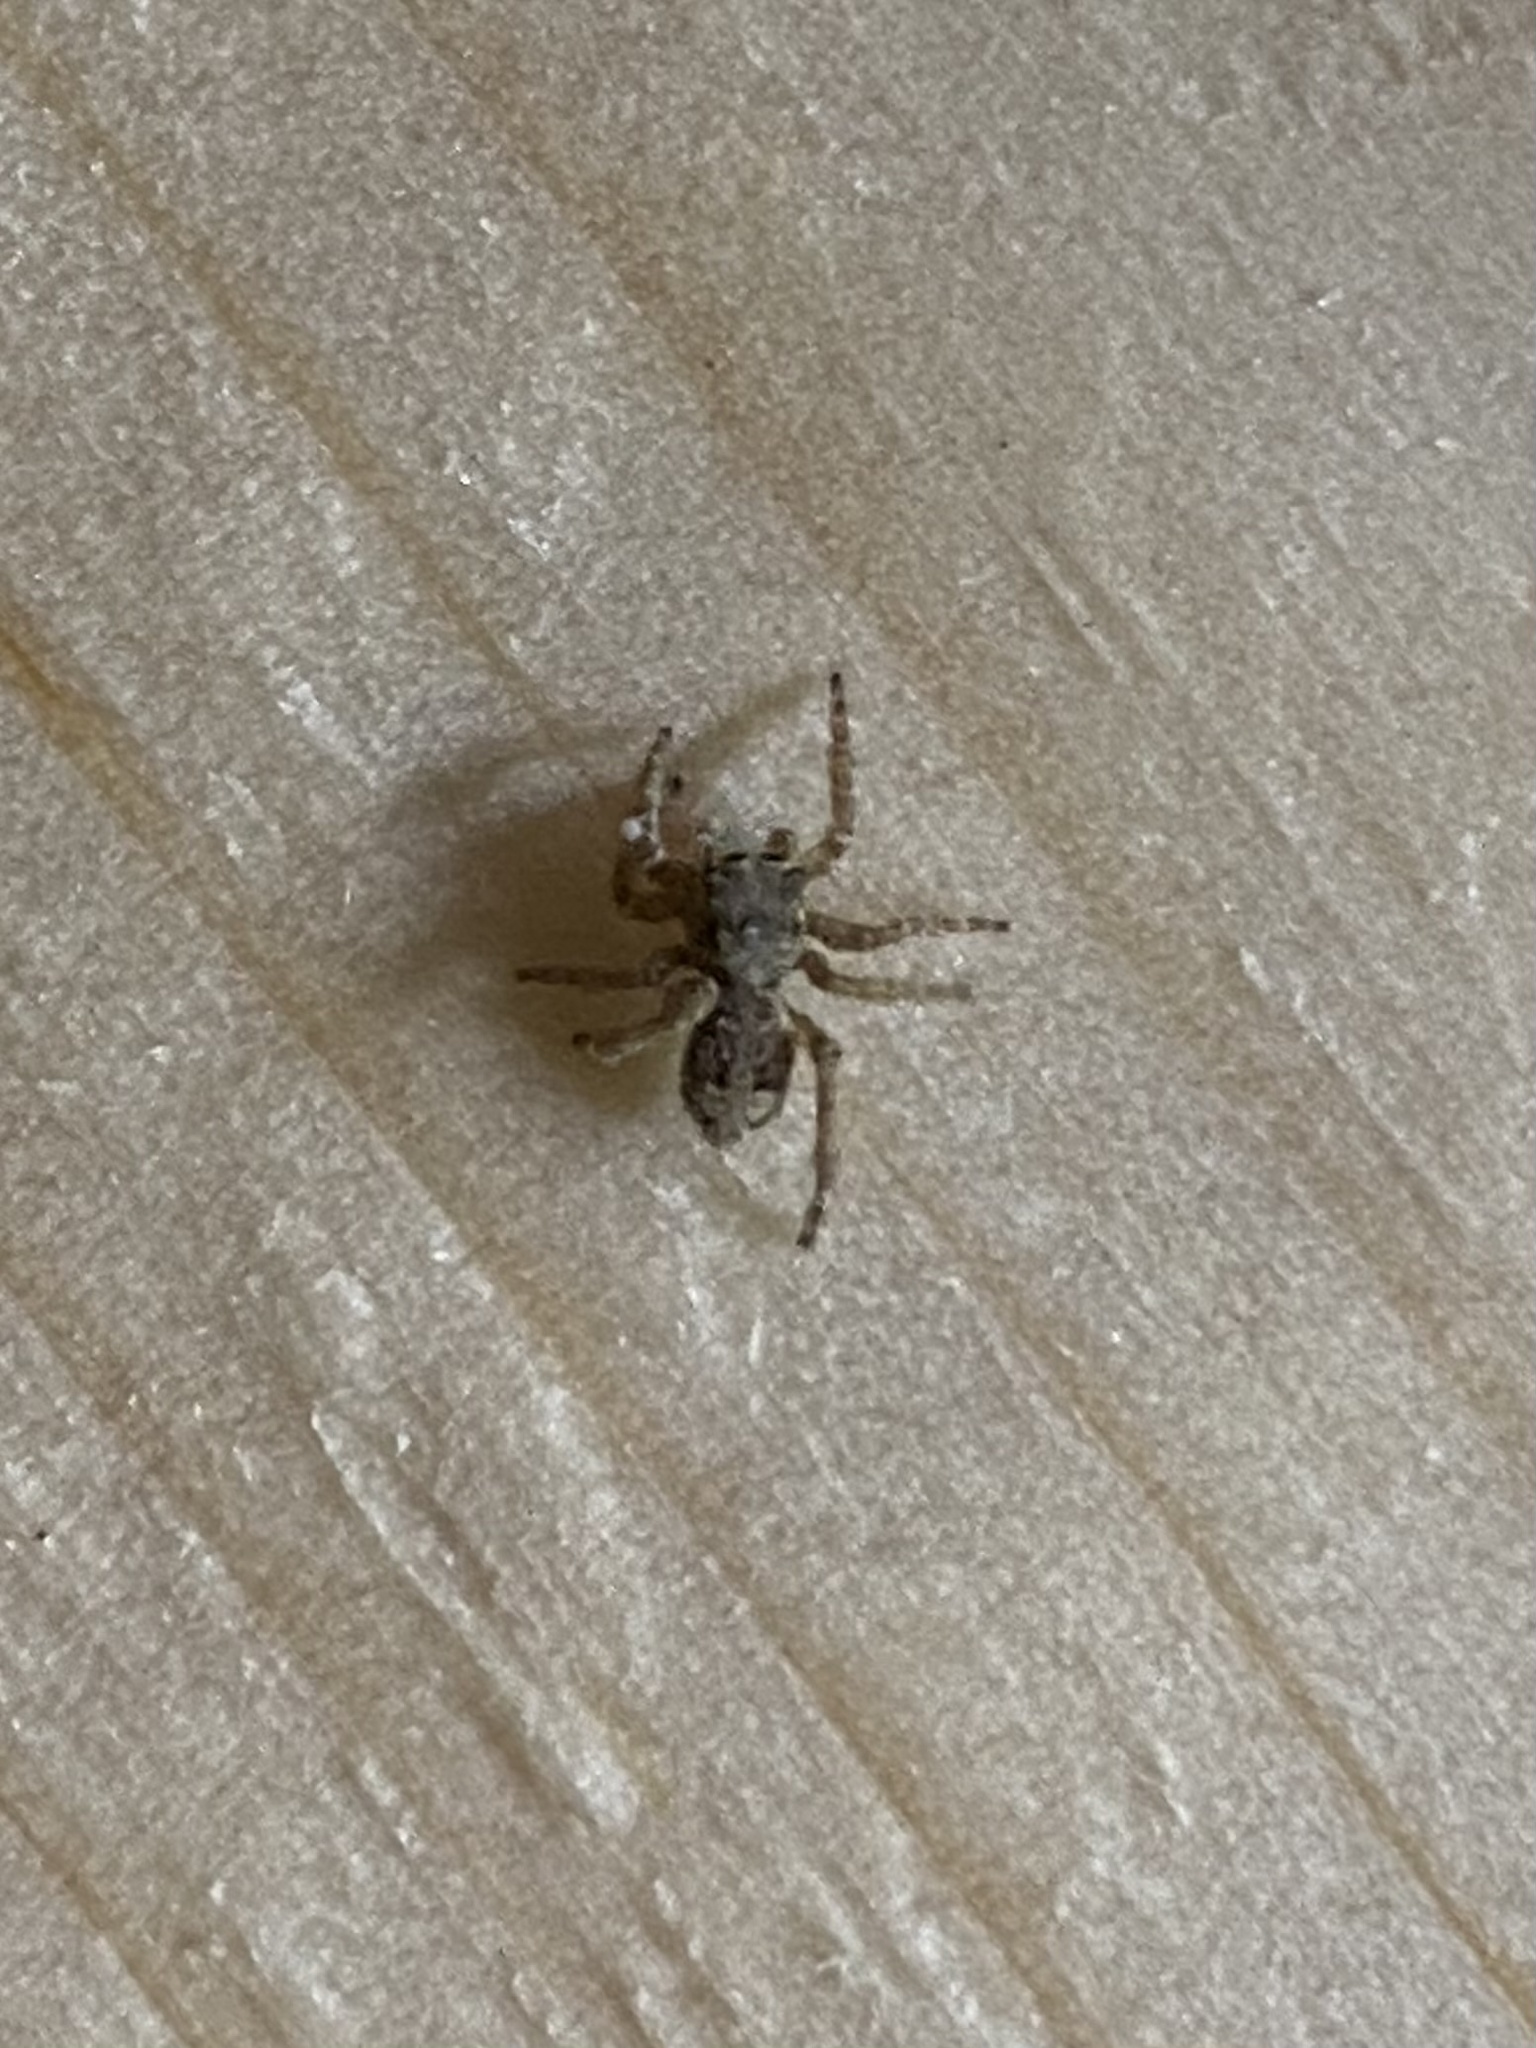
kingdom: Animalia
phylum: Arthropoda
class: Arachnida
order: Araneae
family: Salticidae
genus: Platycryptus
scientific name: Platycryptus undatus
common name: Tan jumping spider
